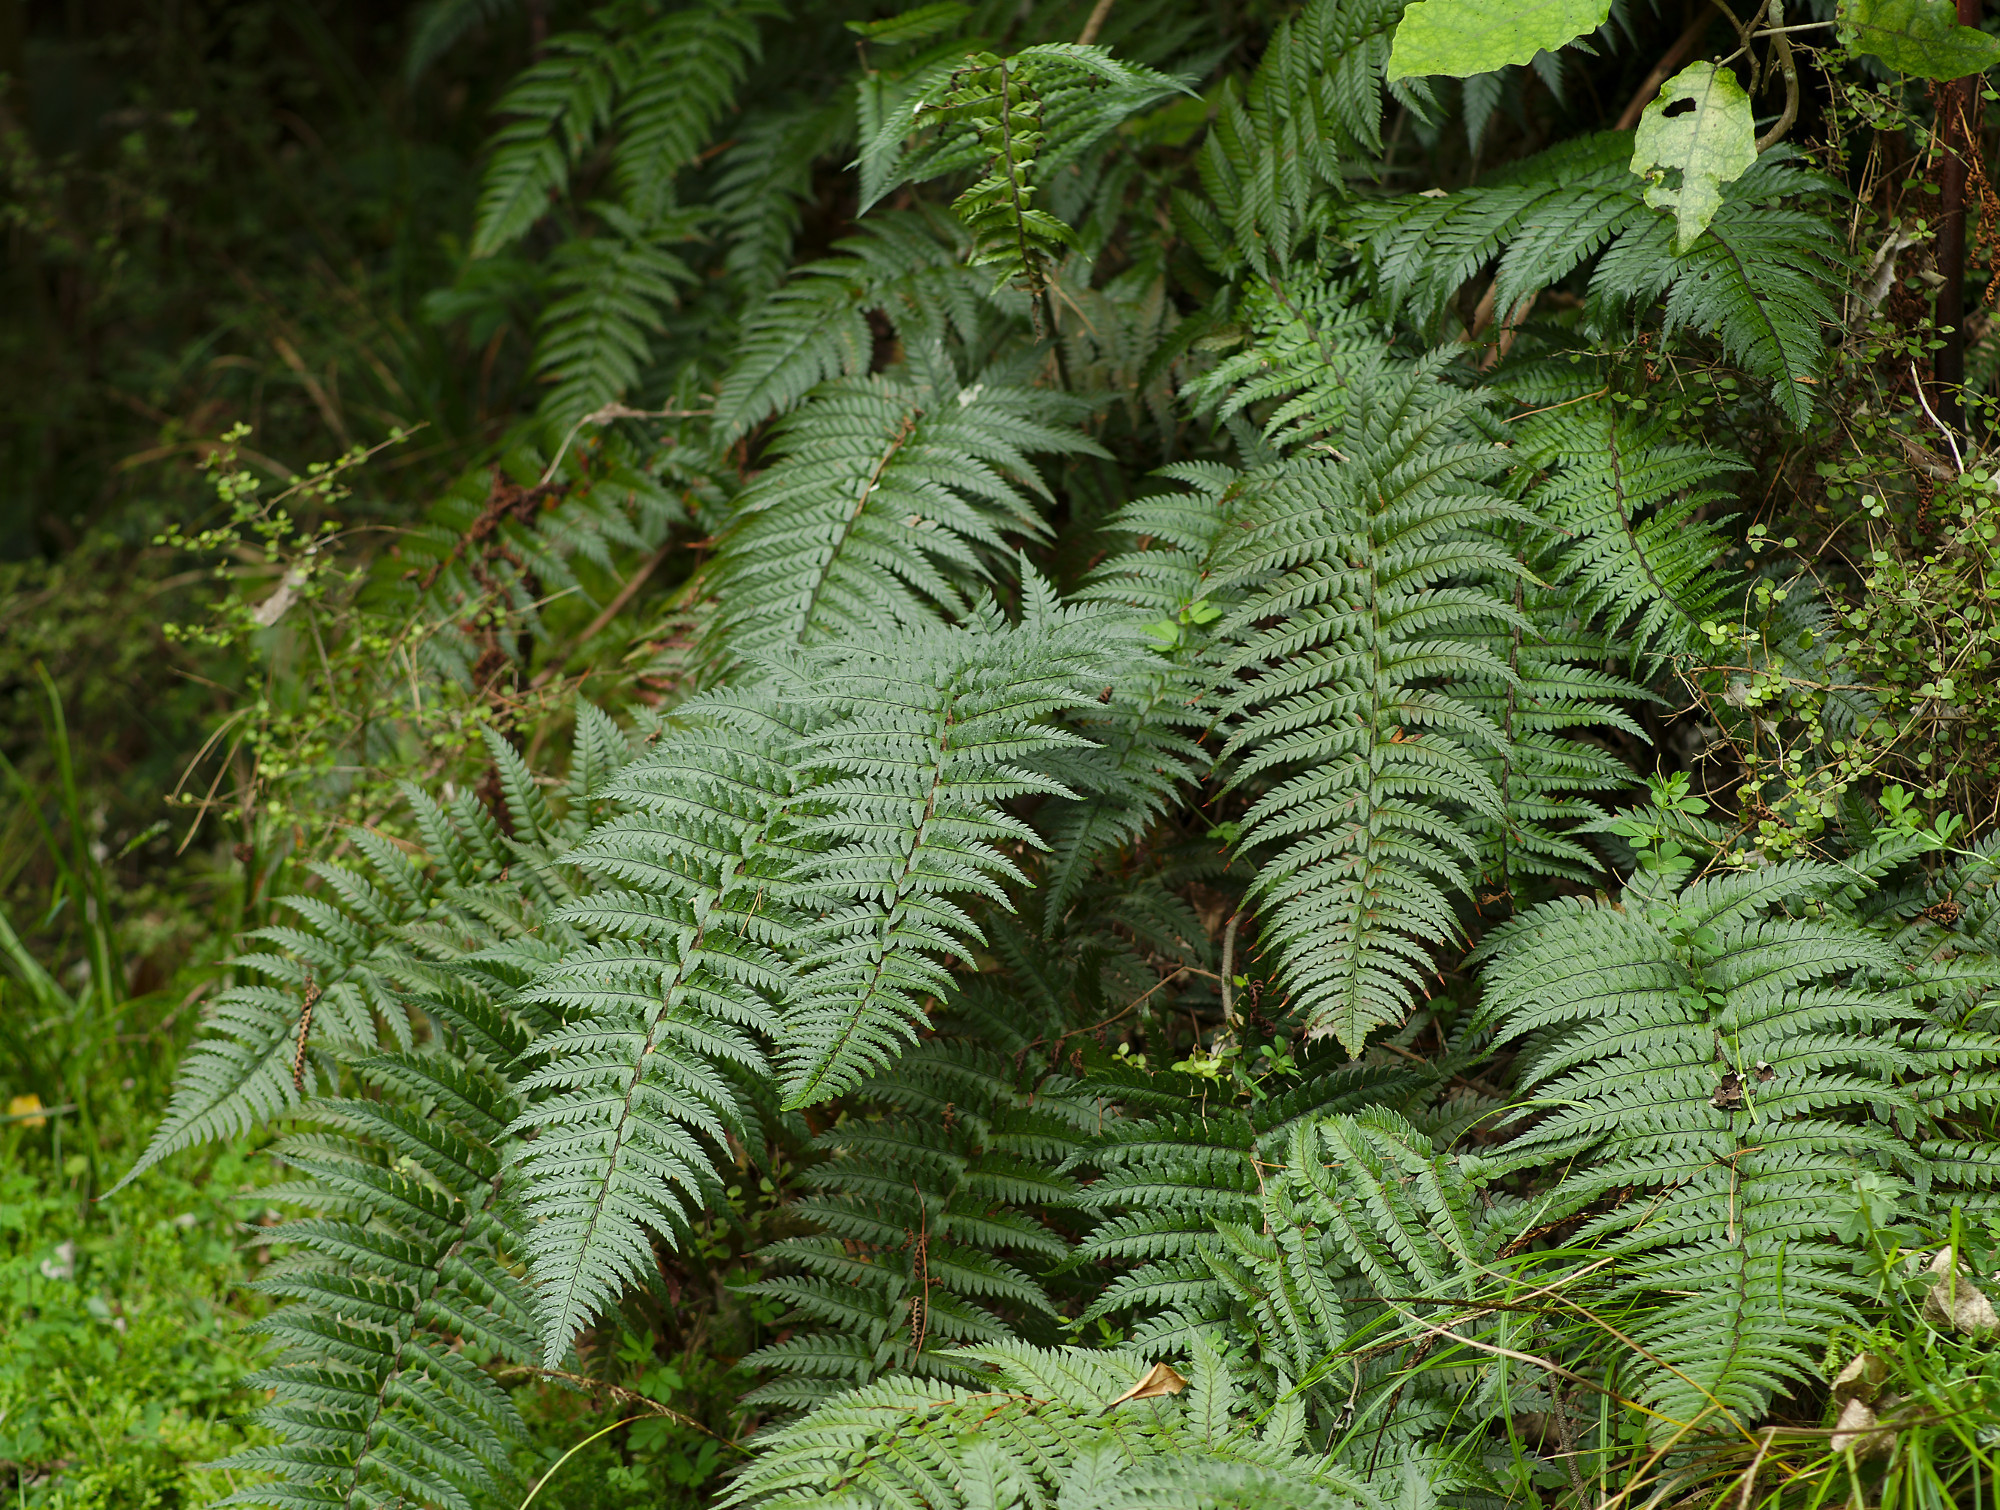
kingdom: Plantae
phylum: Tracheophyta
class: Polypodiopsida
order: Polypodiales
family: Dryopteridaceae
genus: Polystichum
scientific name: Polystichum wawranum
